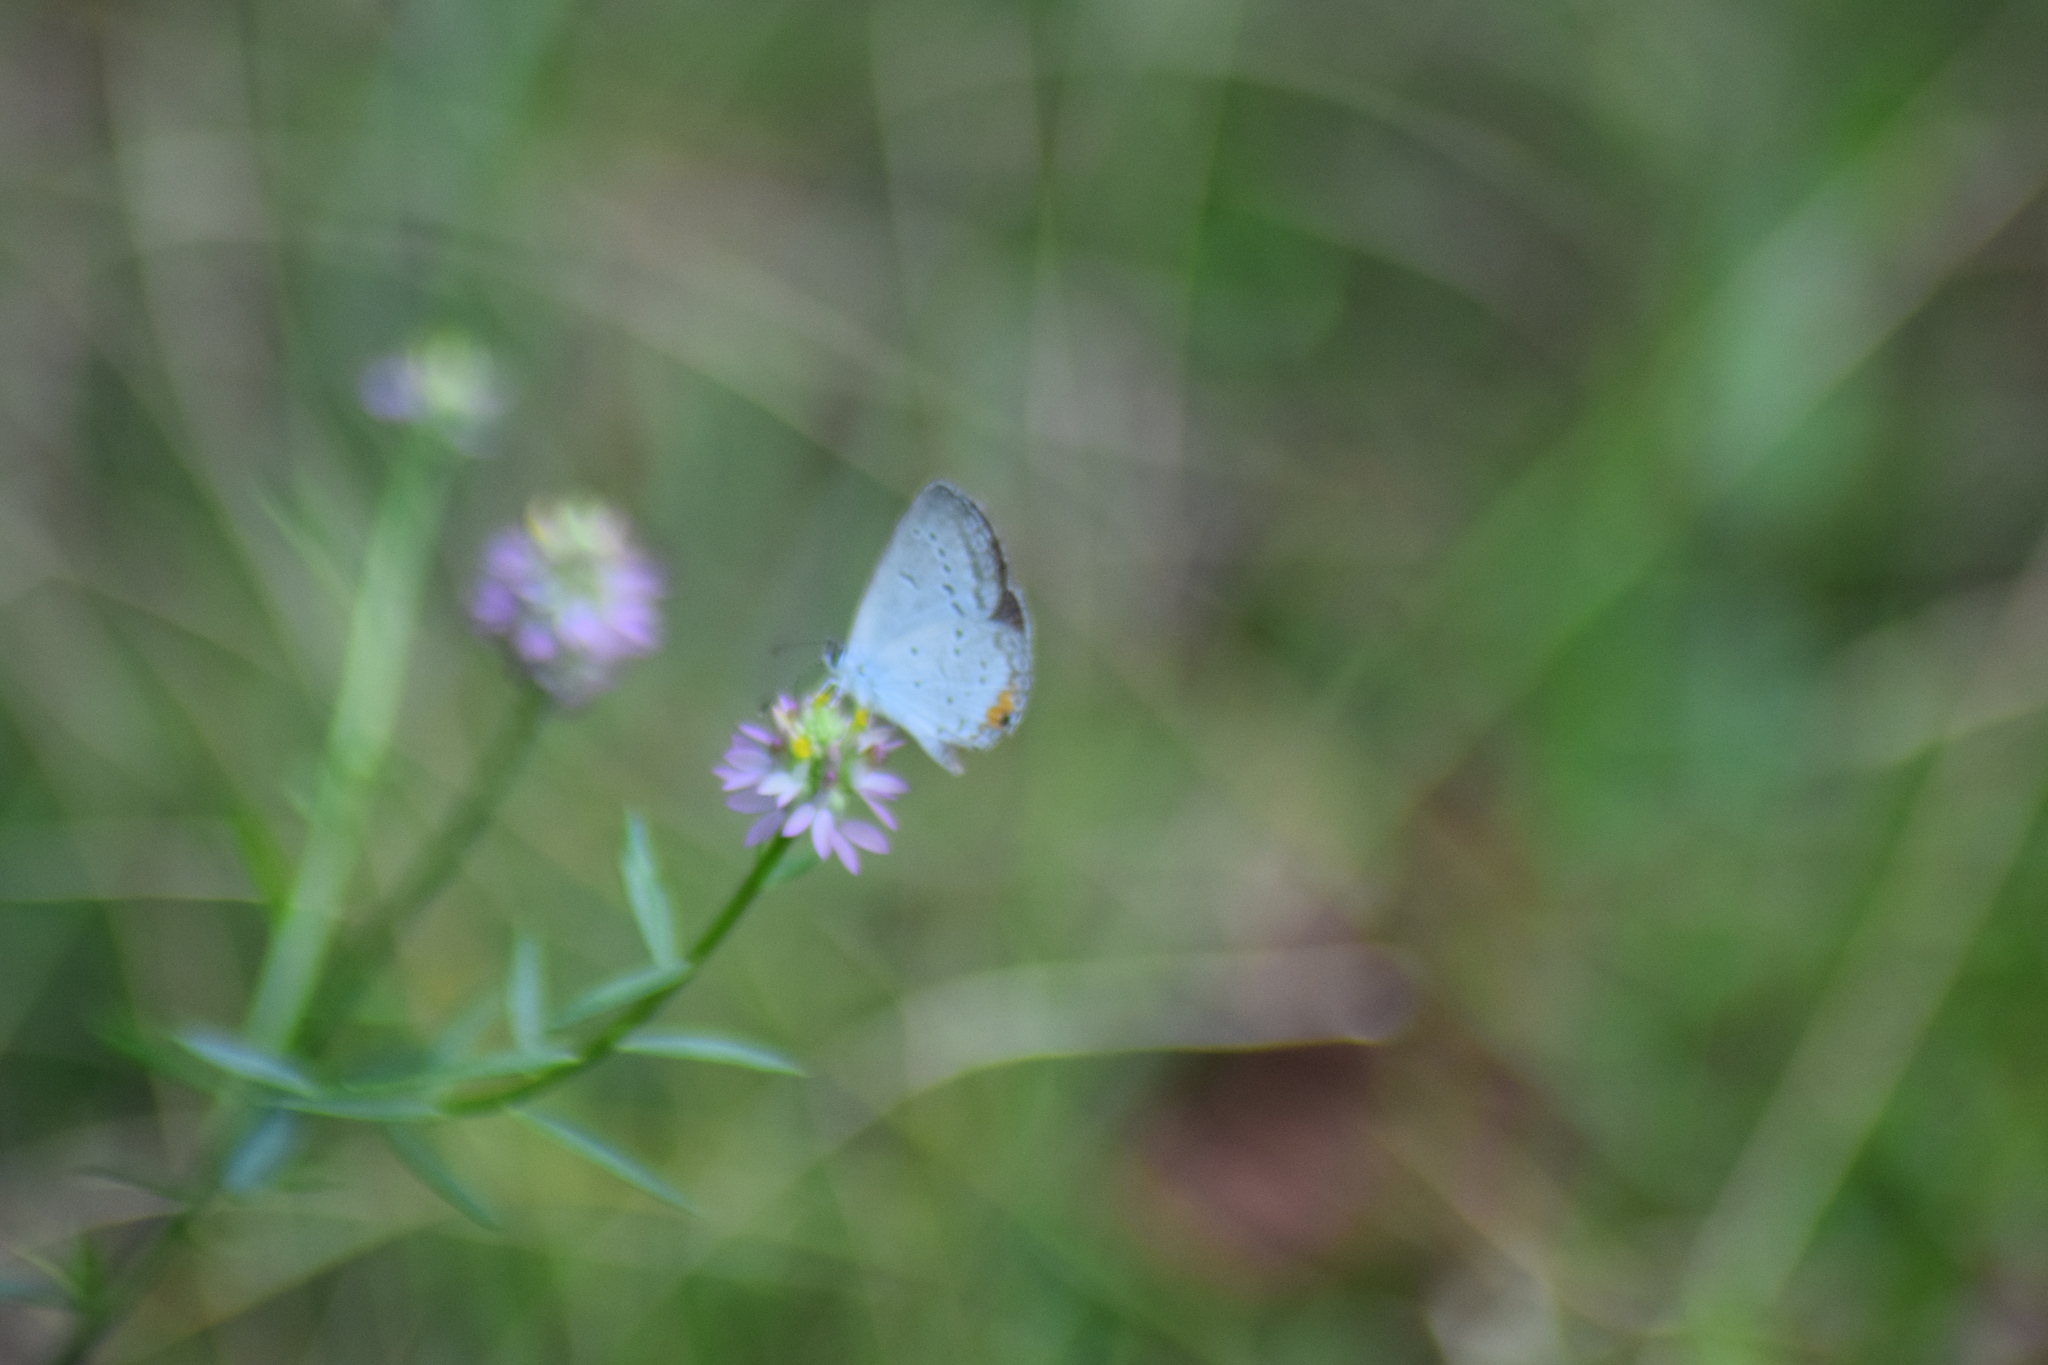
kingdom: Animalia
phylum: Arthropoda
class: Insecta
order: Lepidoptera
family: Lycaenidae
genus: Elkalyce
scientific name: Elkalyce comyntas
